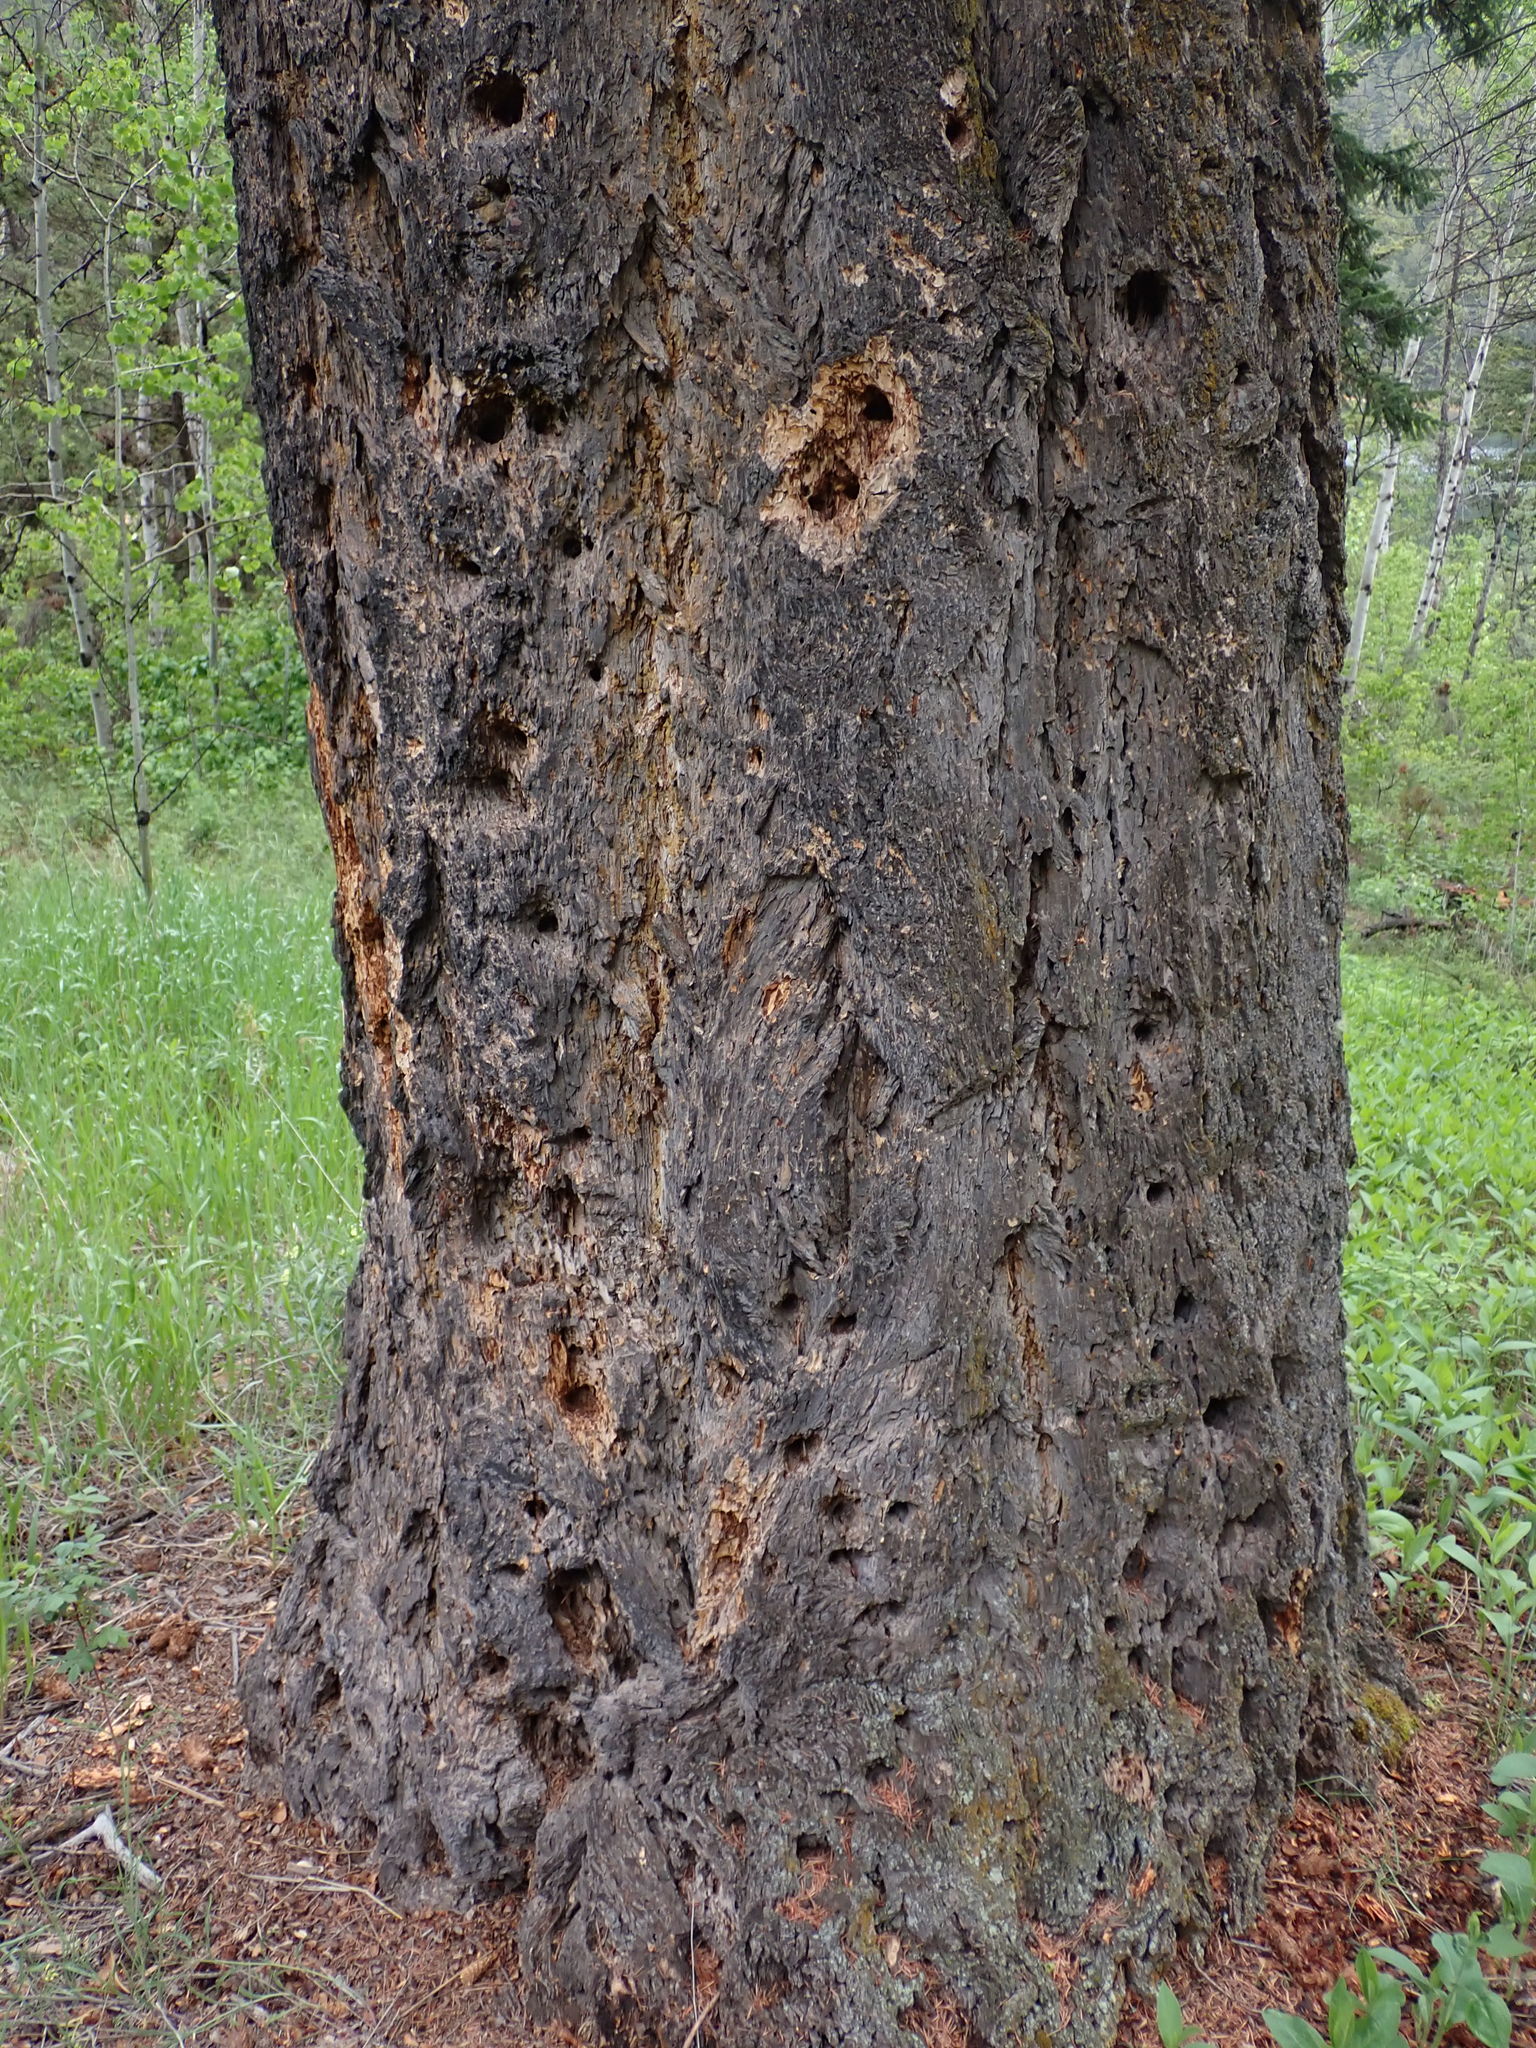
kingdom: Plantae
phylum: Tracheophyta
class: Pinopsida
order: Pinales
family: Pinaceae
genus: Pseudotsuga
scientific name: Pseudotsuga menziesii
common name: Douglas fir
